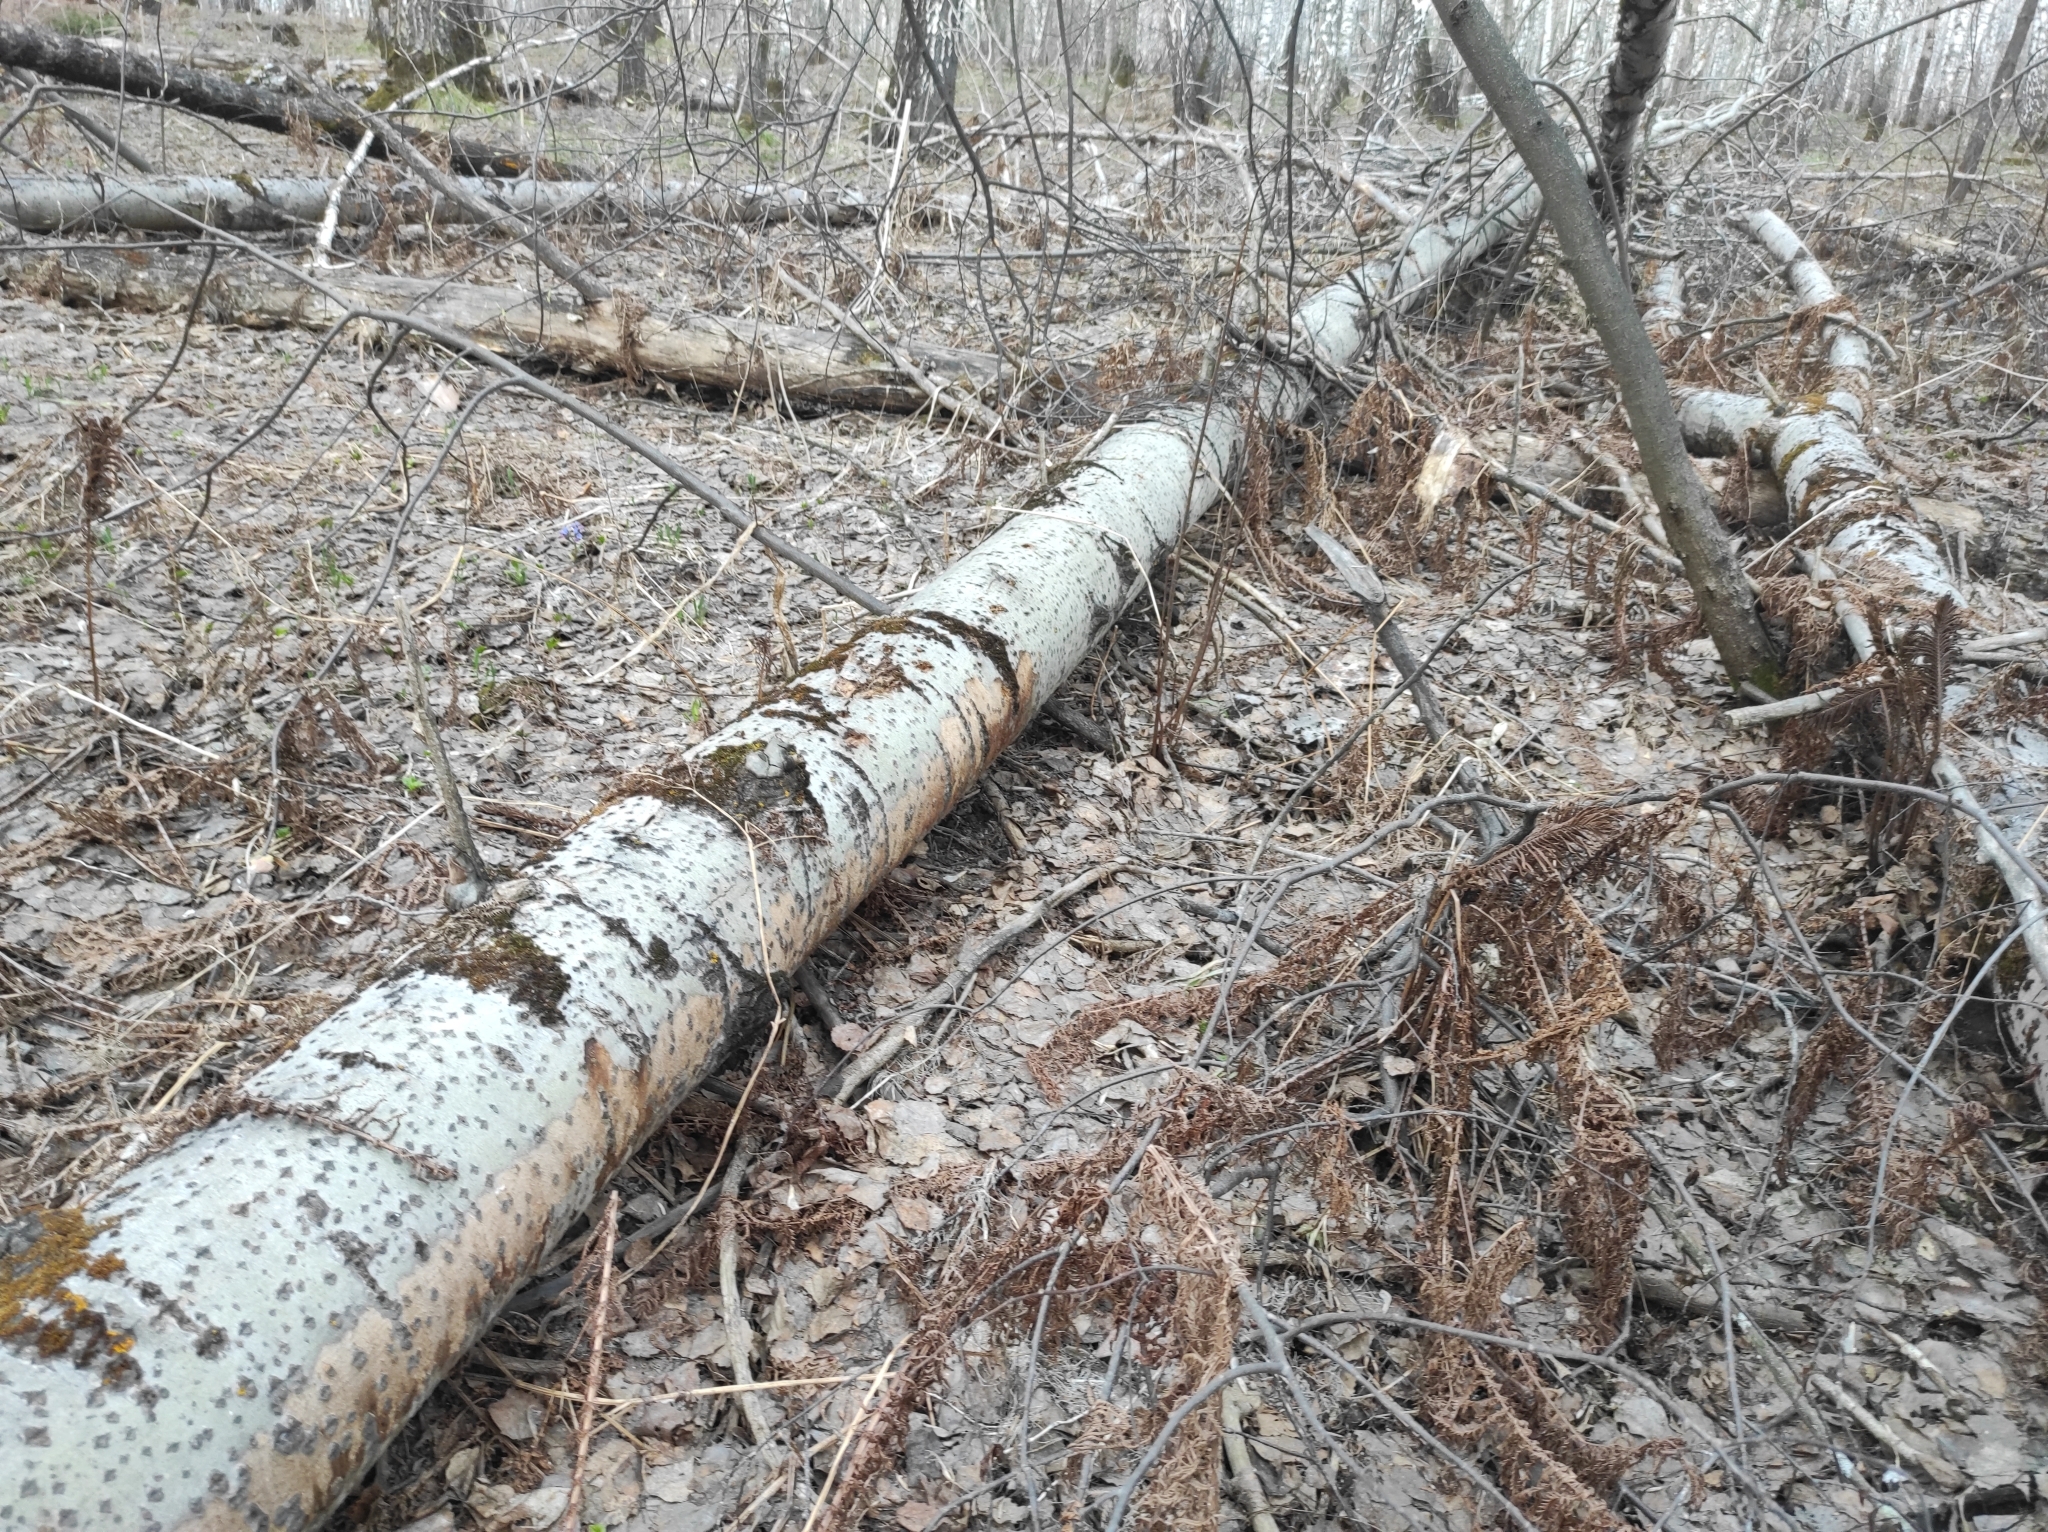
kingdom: Plantae
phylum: Tracheophyta
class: Magnoliopsida
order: Malpighiales
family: Salicaceae
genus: Populus
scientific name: Populus tremula
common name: European aspen
